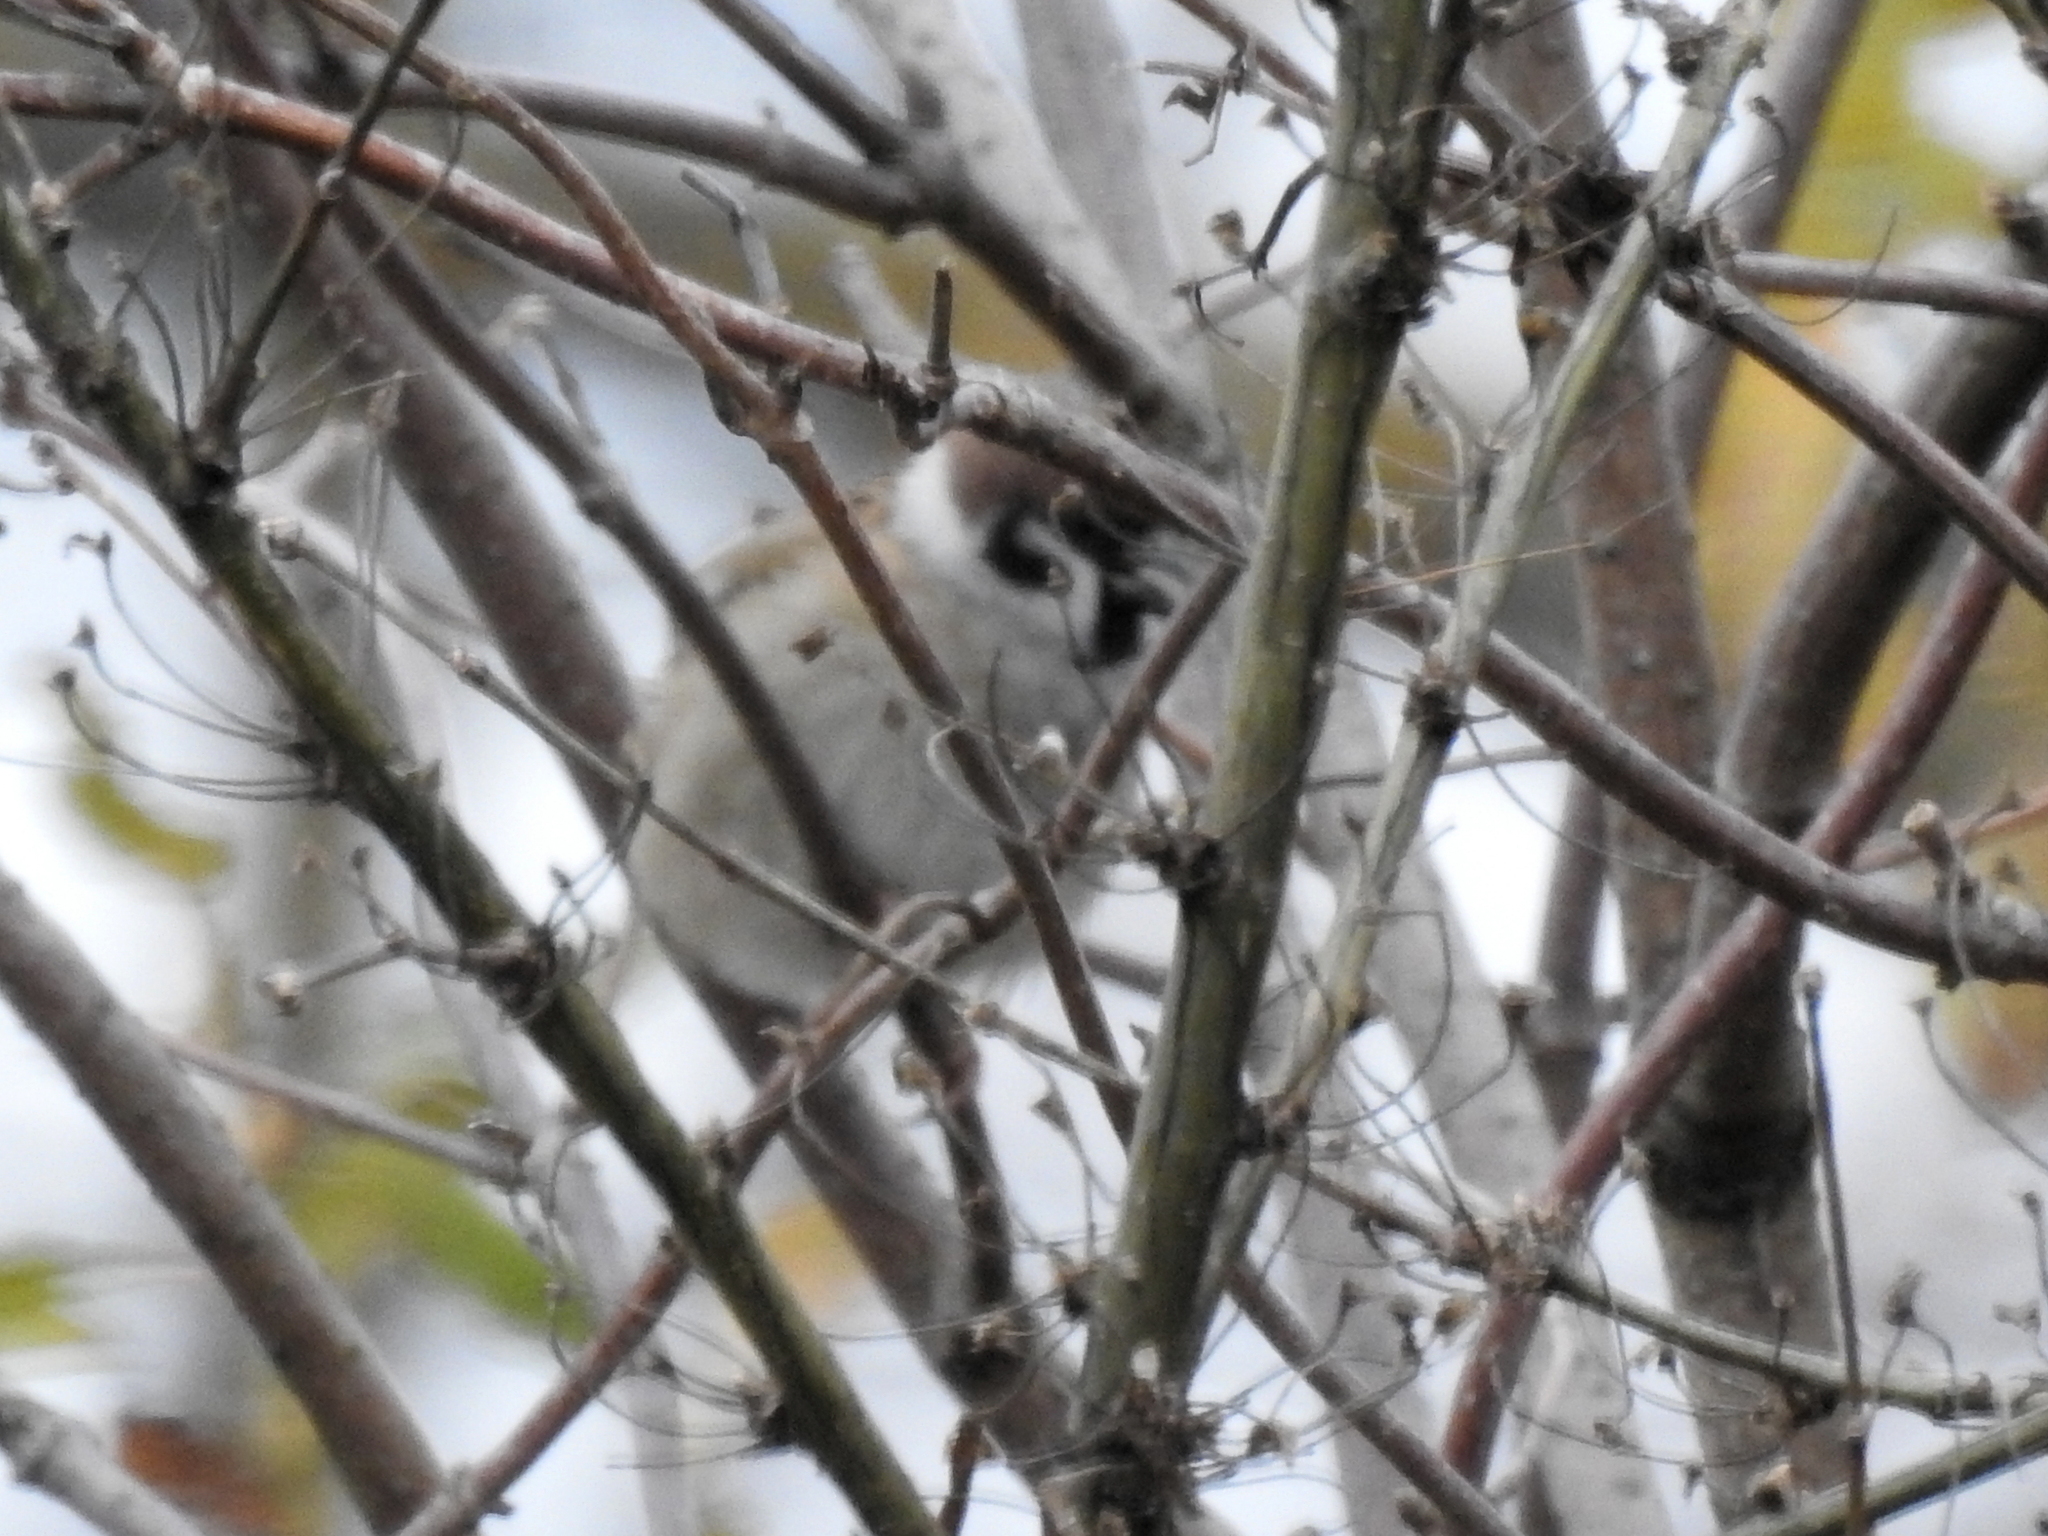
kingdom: Animalia
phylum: Chordata
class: Aves
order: Passeriformes
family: Passeridae
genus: Passer
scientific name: Passer montanus
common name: Eurasian tree sparrow
